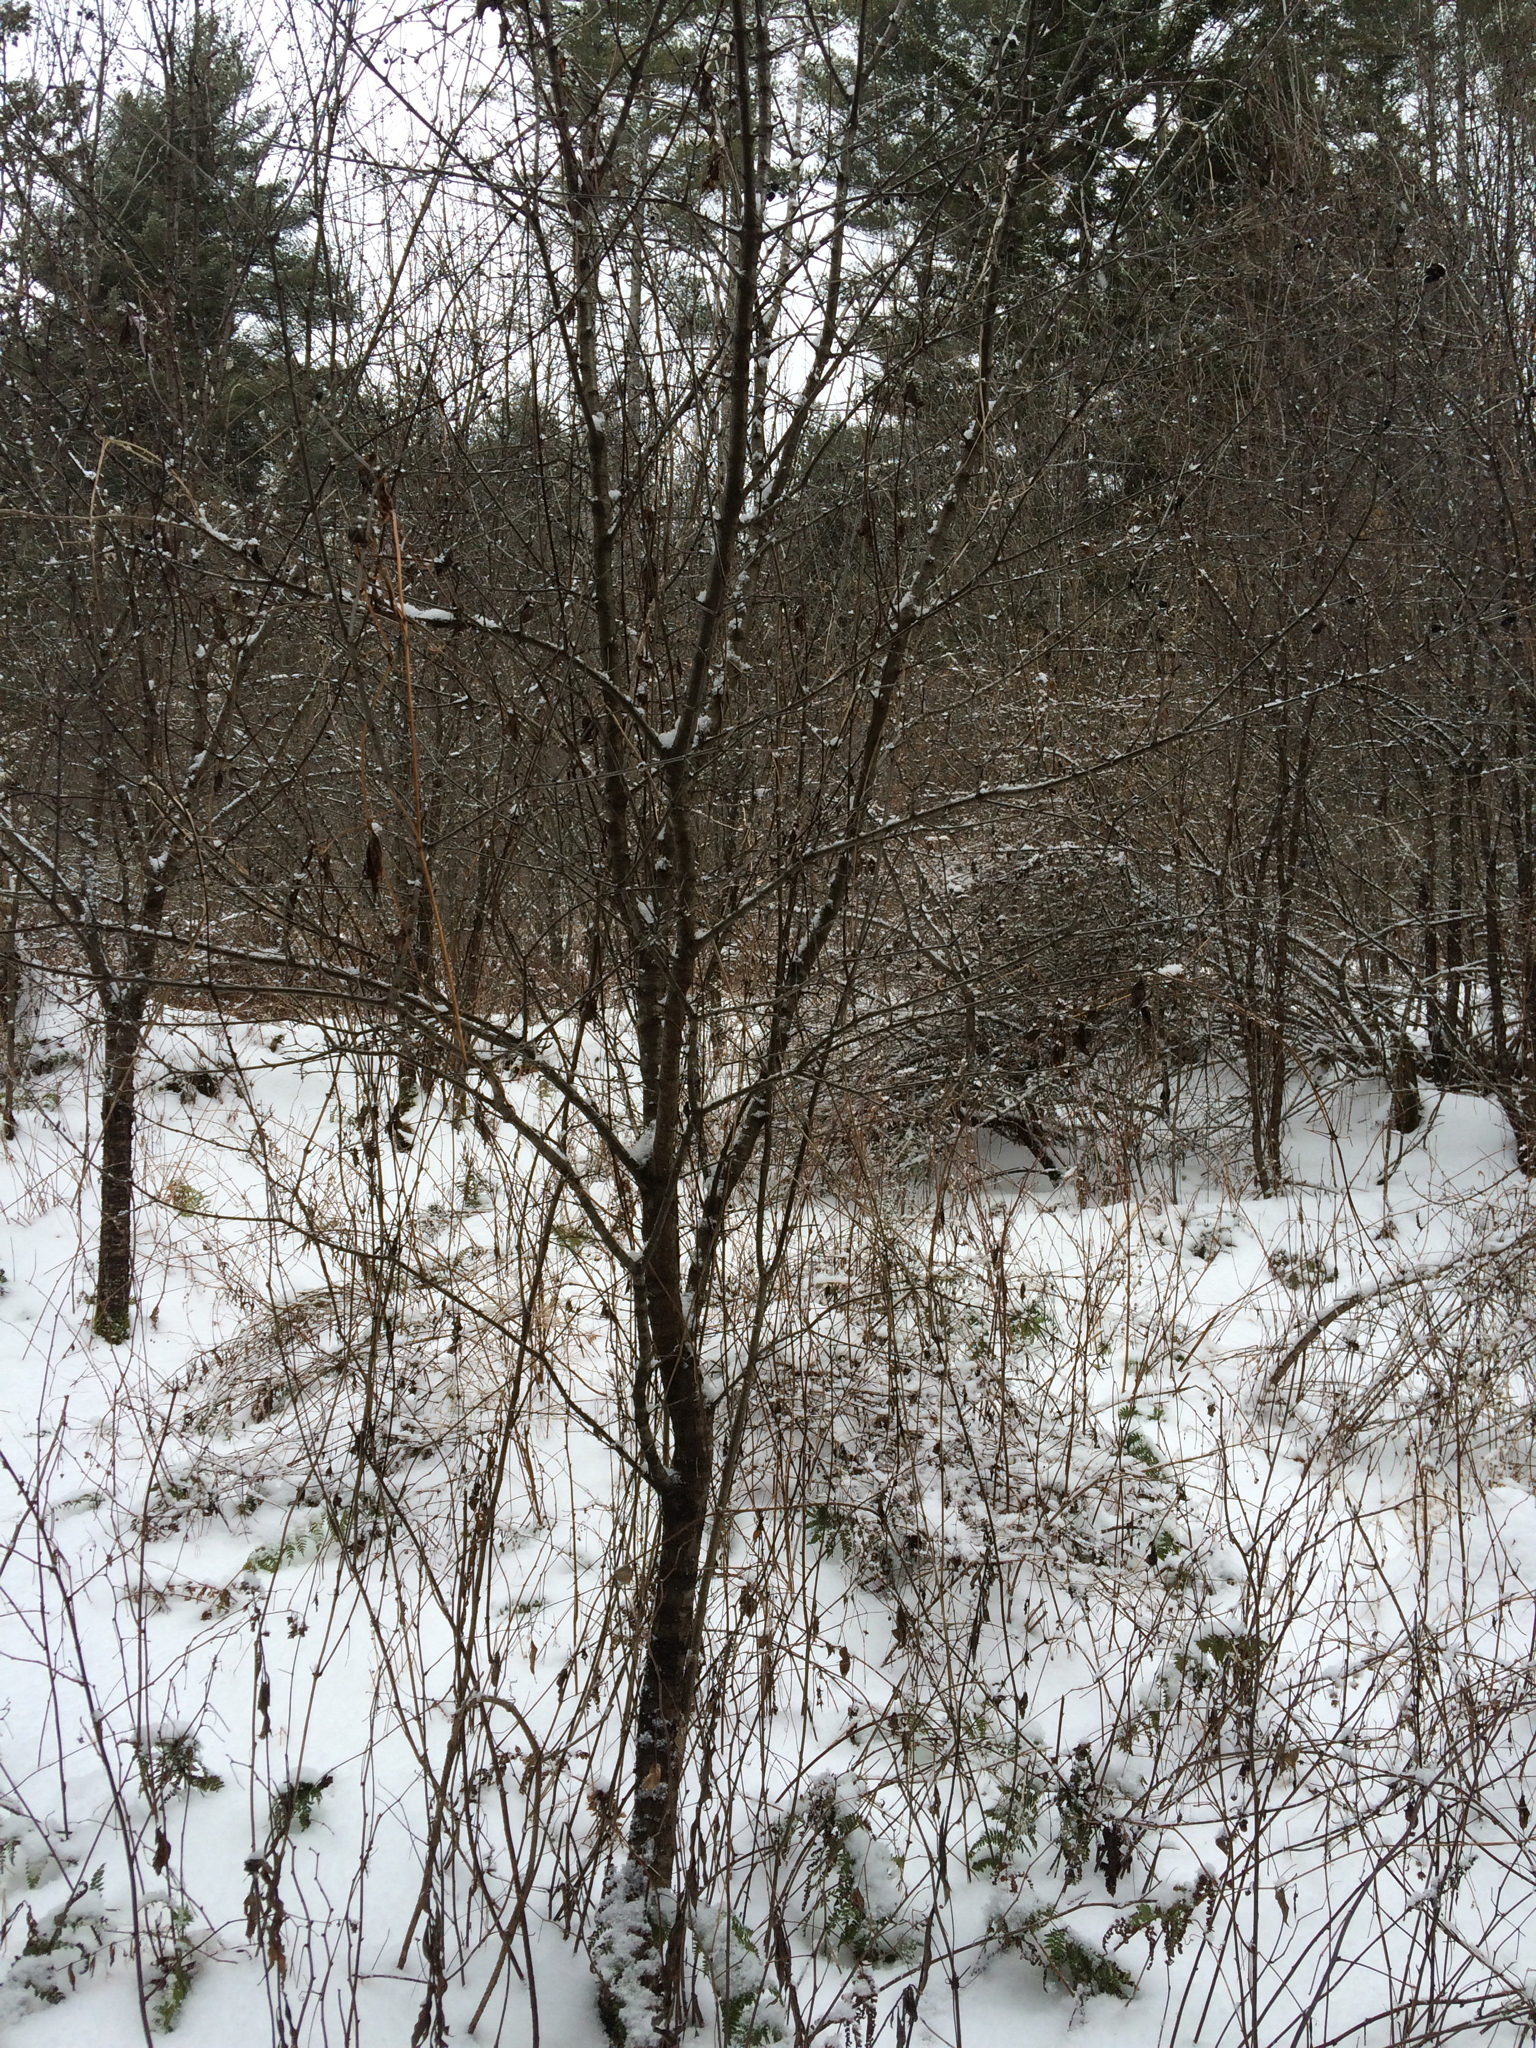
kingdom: Plantae
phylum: Tracheophyta
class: Magnoliopsida
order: Rosales
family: Rhamnaceae
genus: Rhamnus
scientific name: Rhamnus cathartica
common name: Common buckthorn
